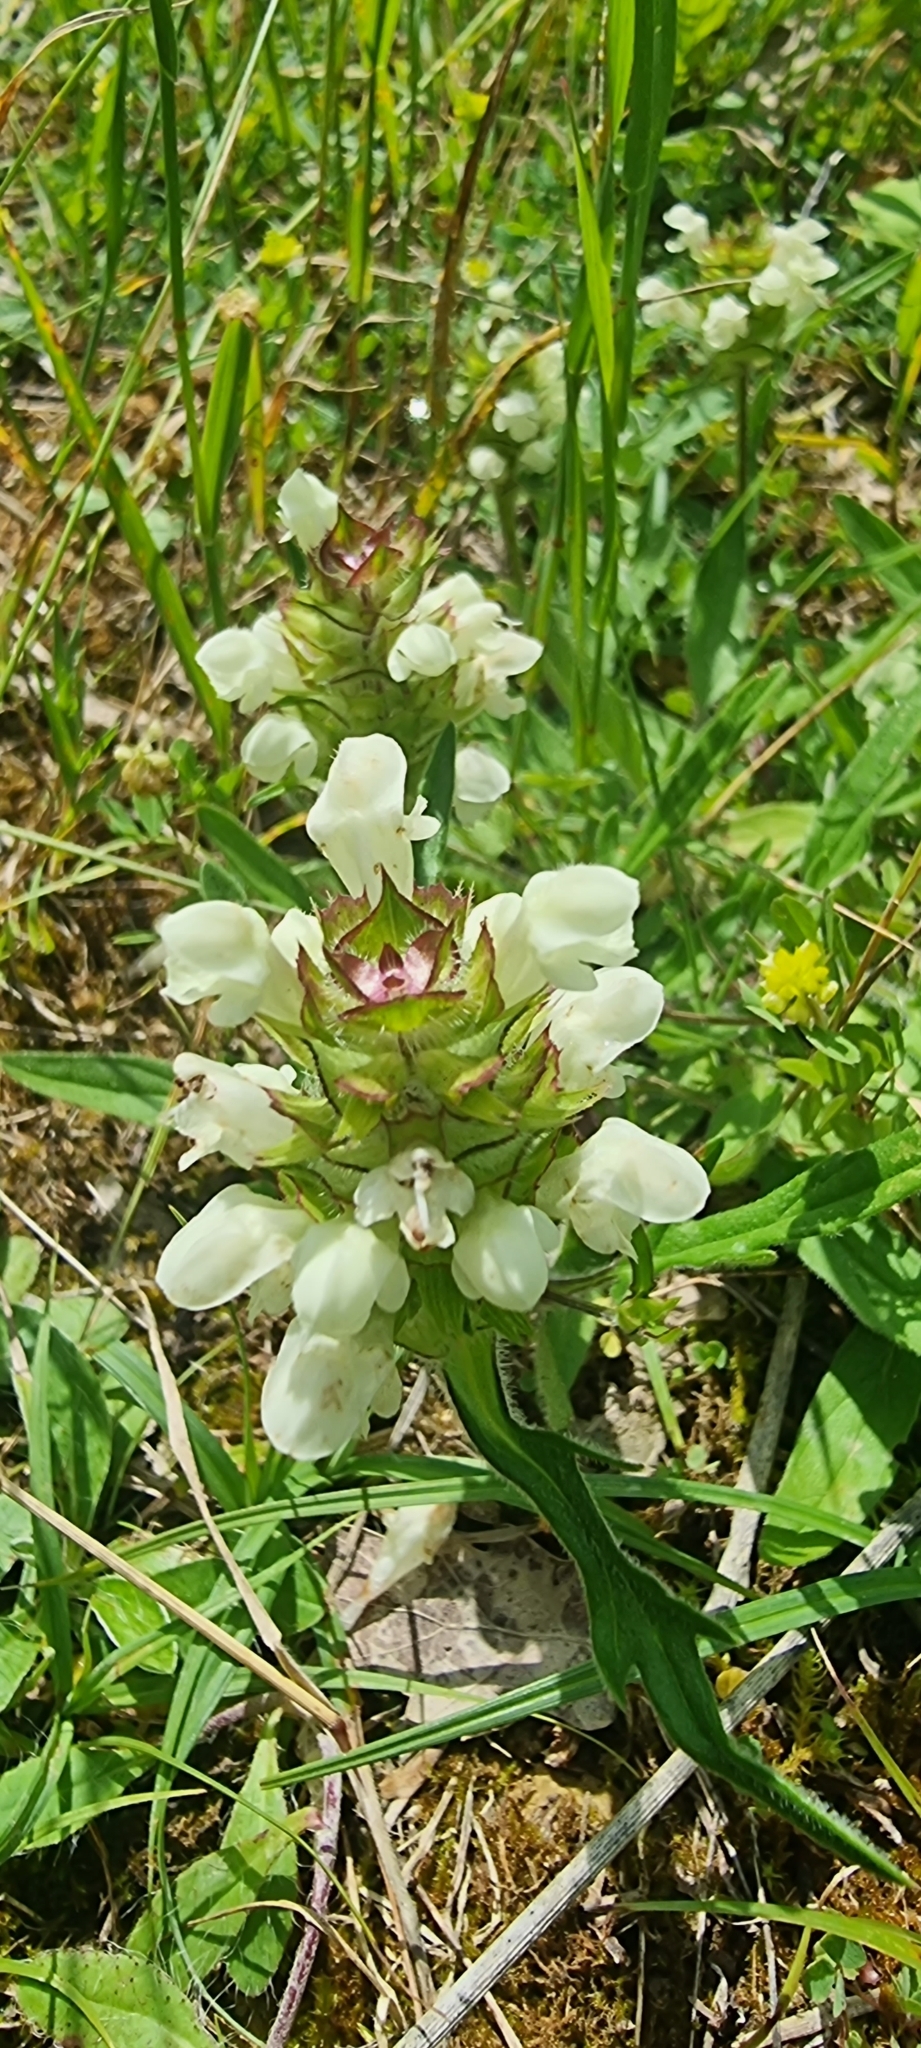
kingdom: Plantae
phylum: Tracheophyta
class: Magnoliopsida
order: Lamiales
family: Lamiaceae
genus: Prunella
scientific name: Prunella laciniata
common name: Cut-leaved selfheal
